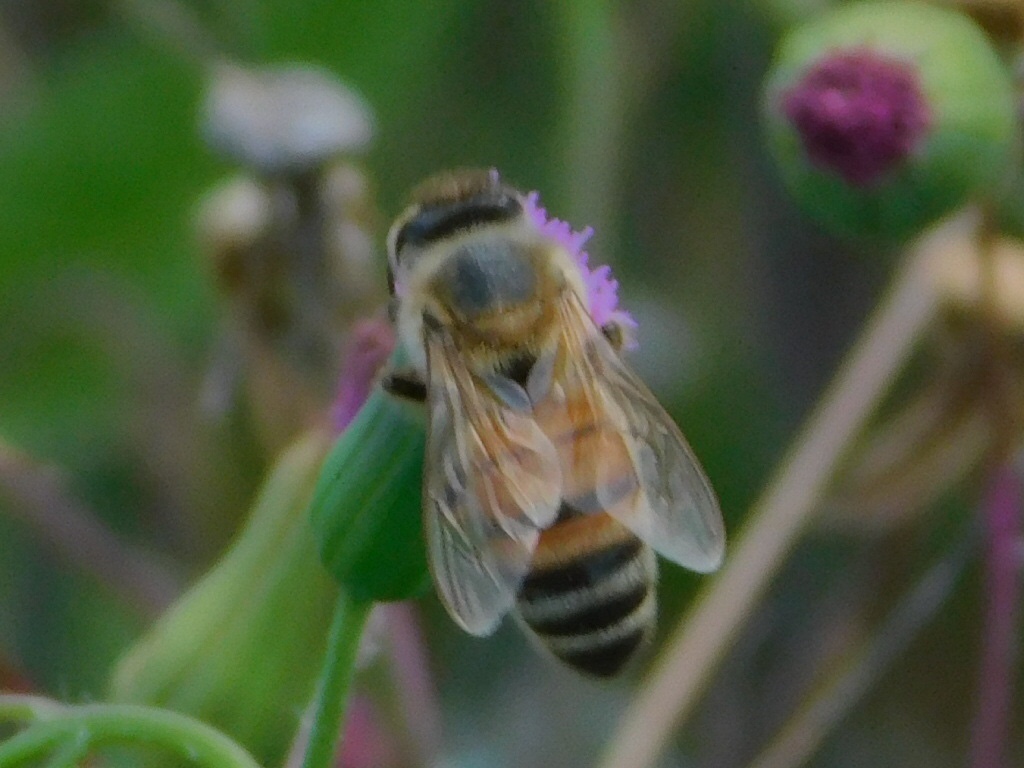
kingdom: Animalia
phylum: Arthropoda
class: Insecta
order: Hymenoptera
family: Apidae
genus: Apis
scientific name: Apis mellifera
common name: Honey bee
